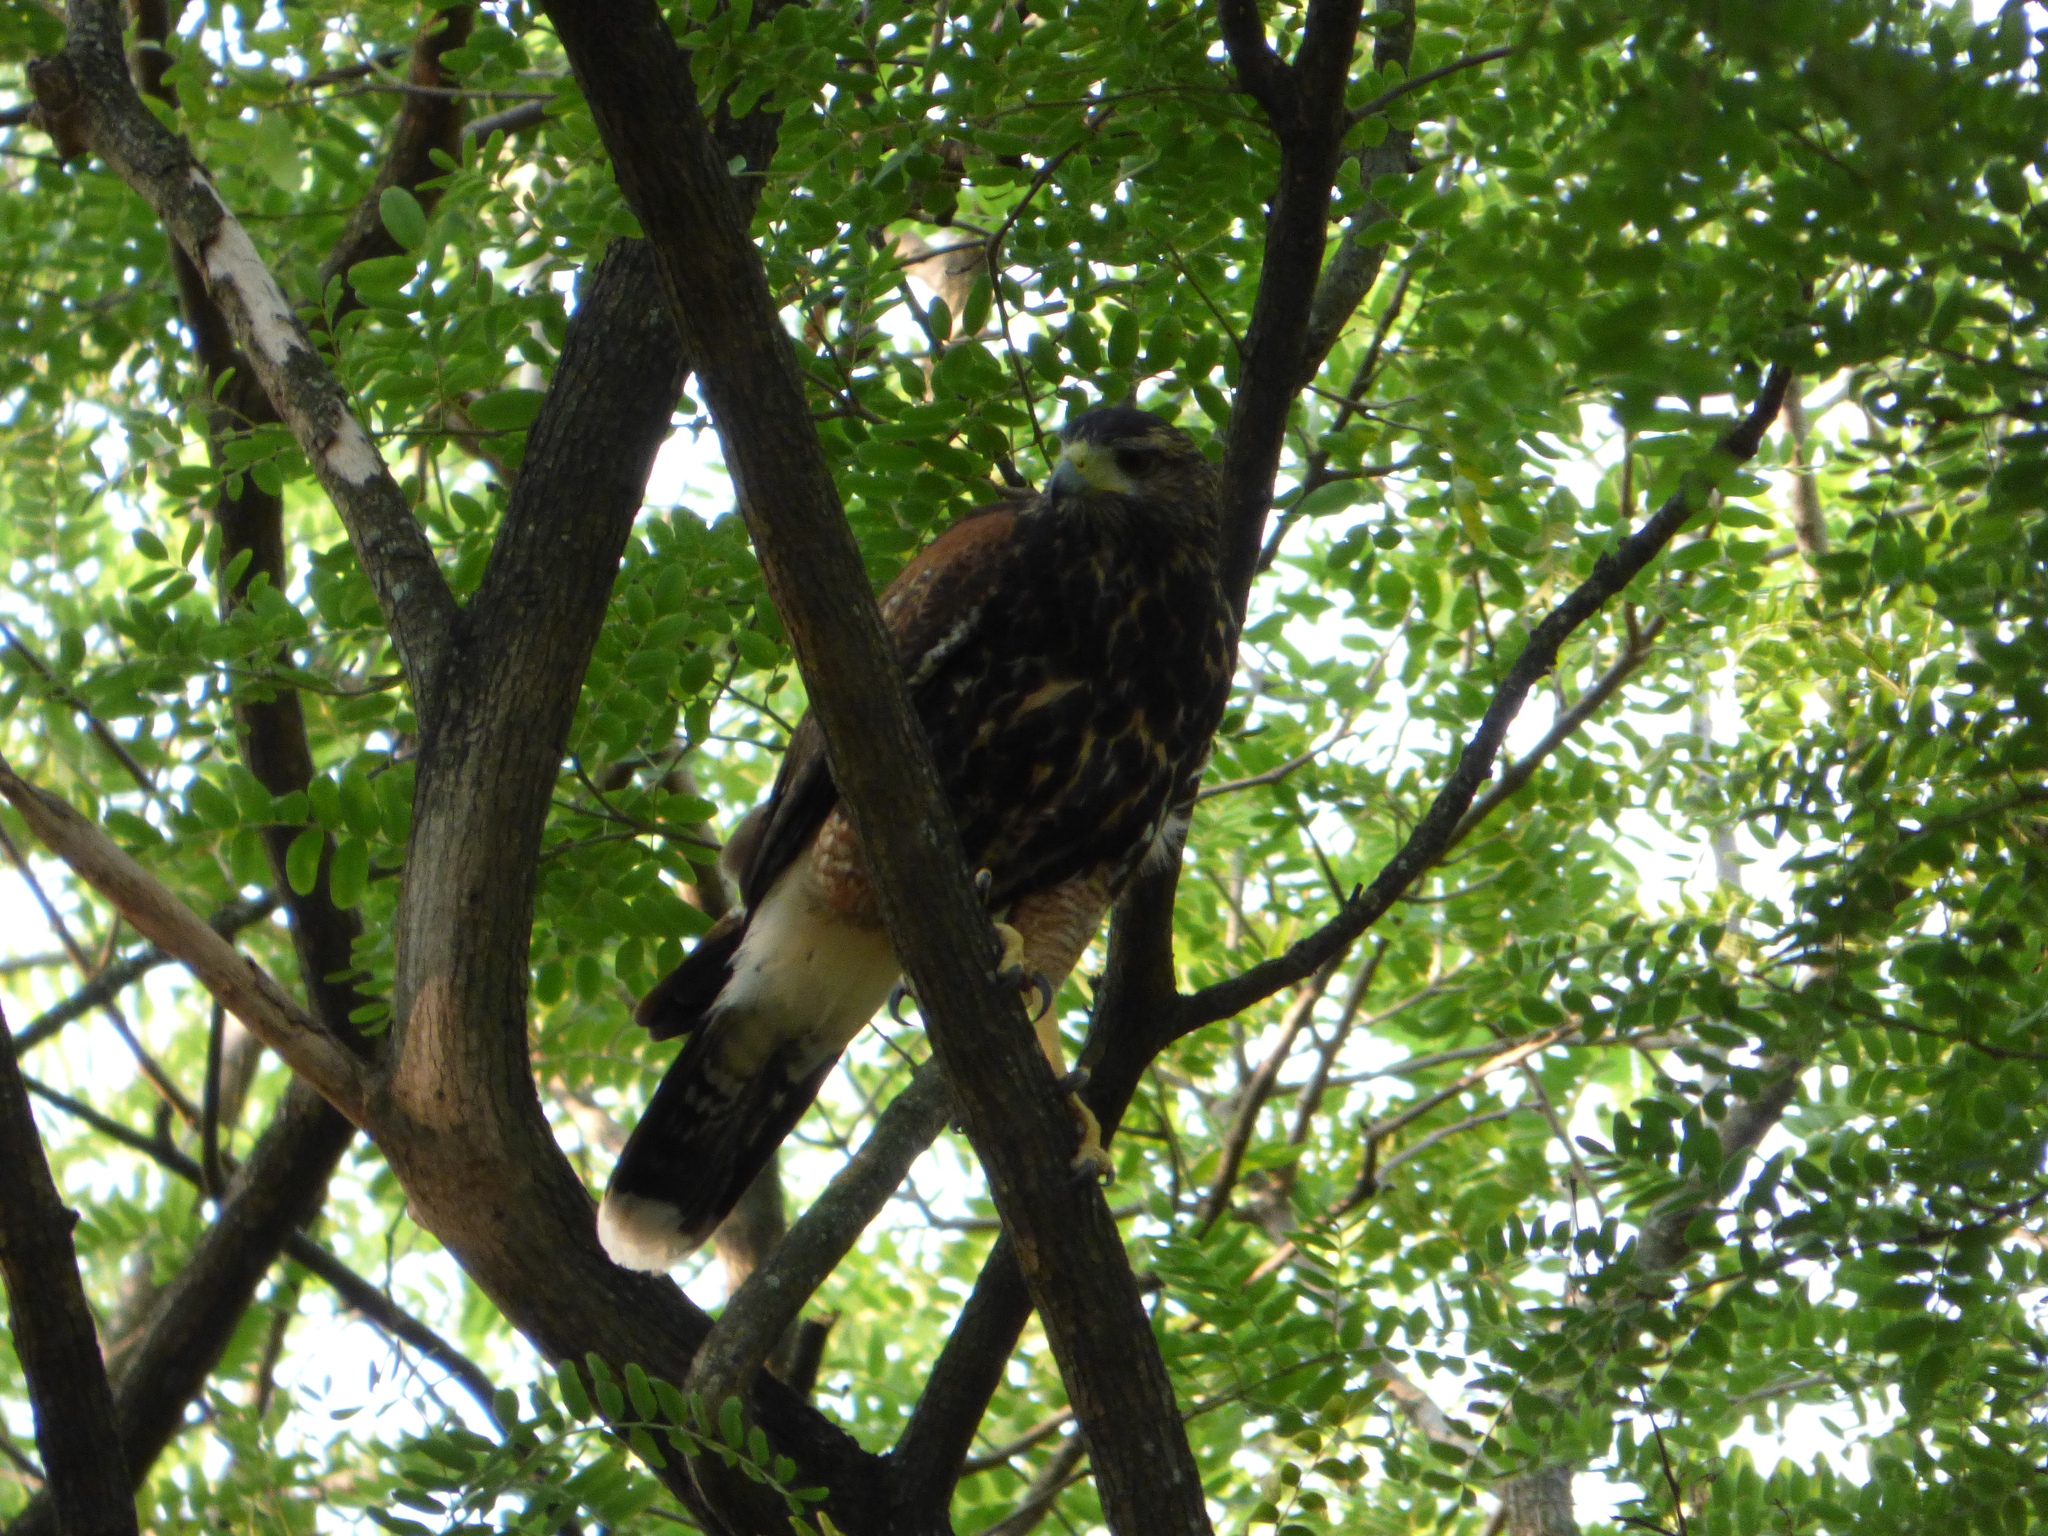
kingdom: Animalia
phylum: Chordata
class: Aves
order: Accipitriformes
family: Accipitridae
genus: Parabuteo
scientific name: Parabuteo unicinctus
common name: Harris's hawk
